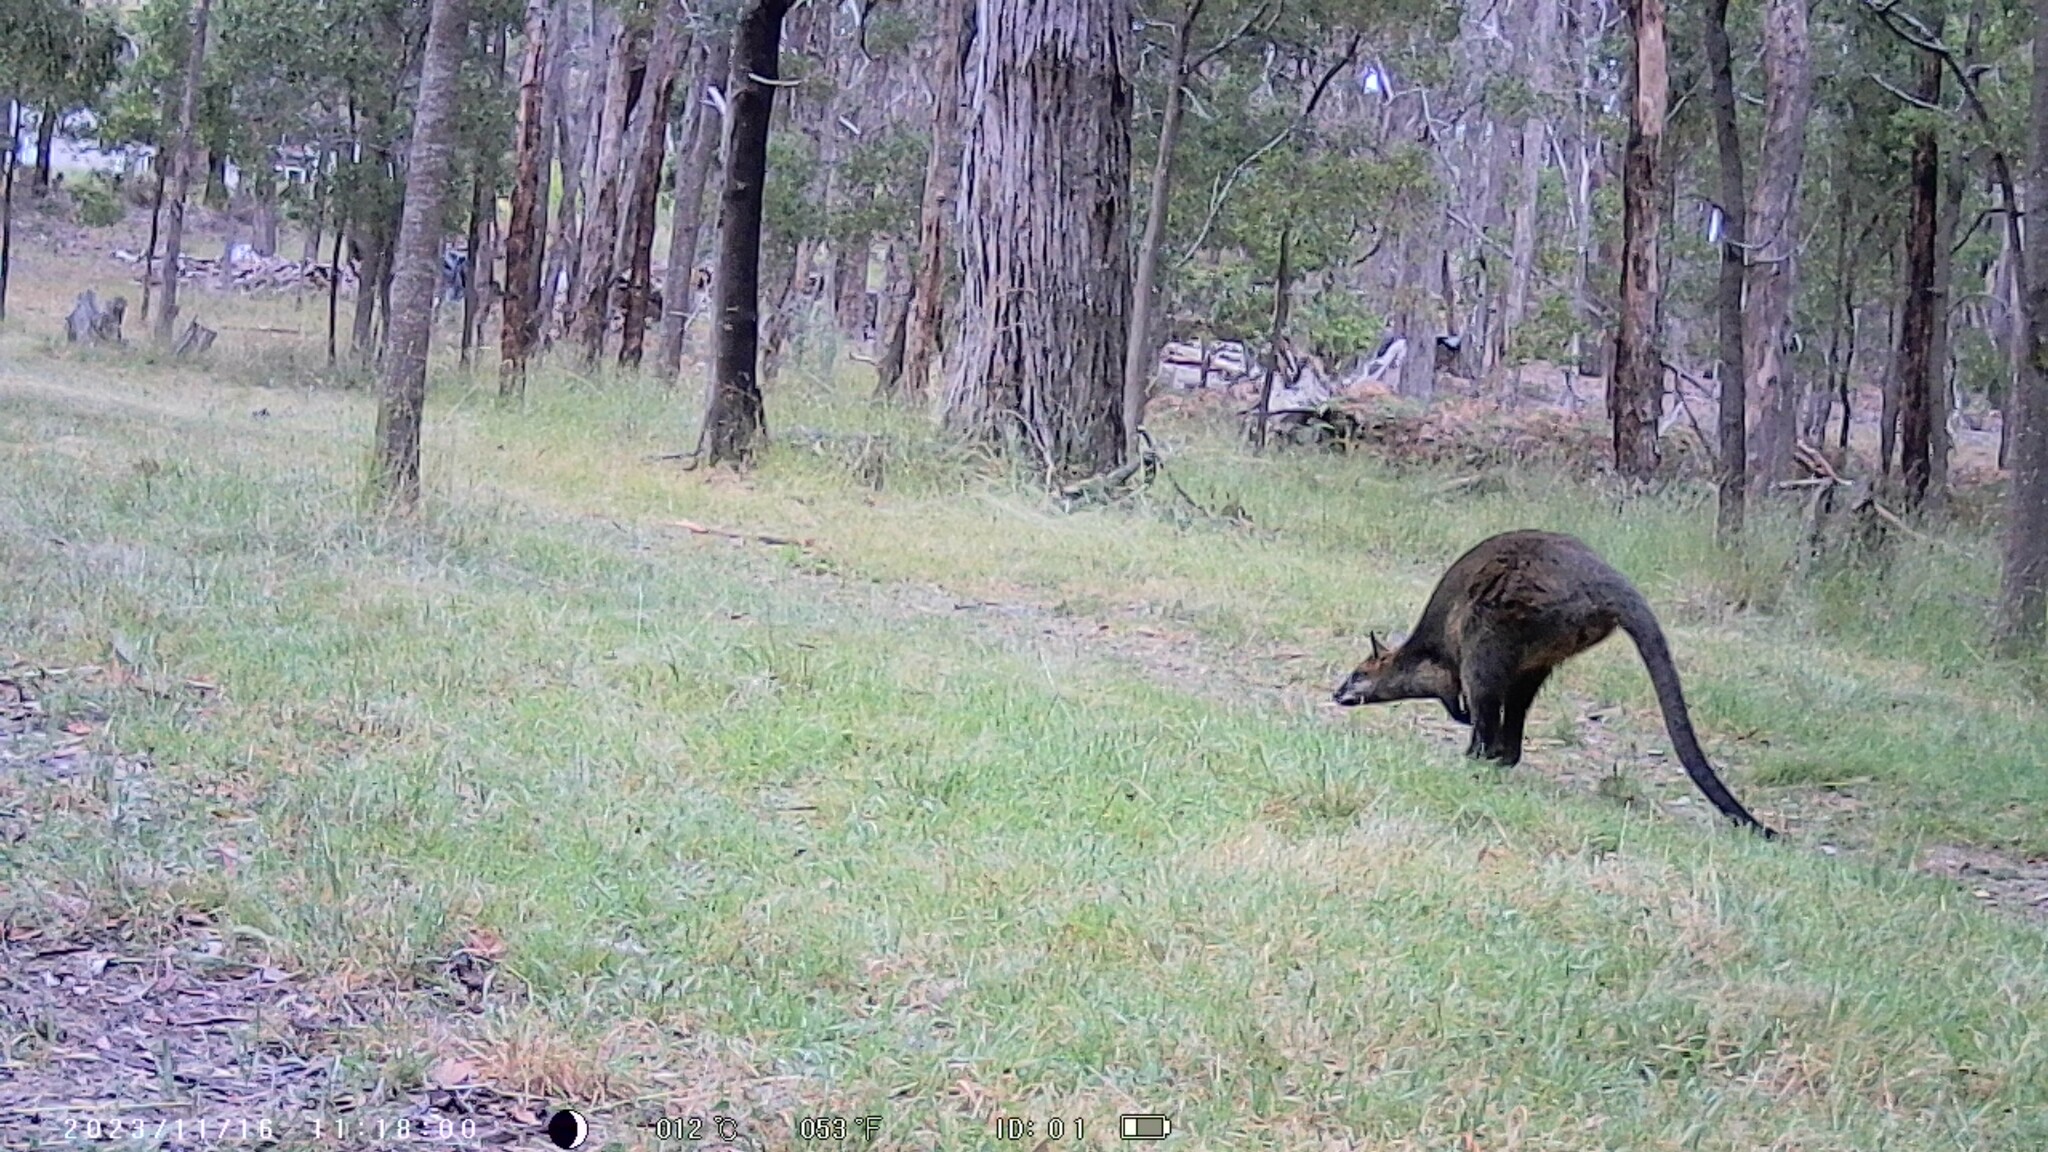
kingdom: Animalia
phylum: Chordata
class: Mammalia
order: Diprotodontia
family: Macropodidae
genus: Wallabia
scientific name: Wallabia bicolor
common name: Swamp wallaby
